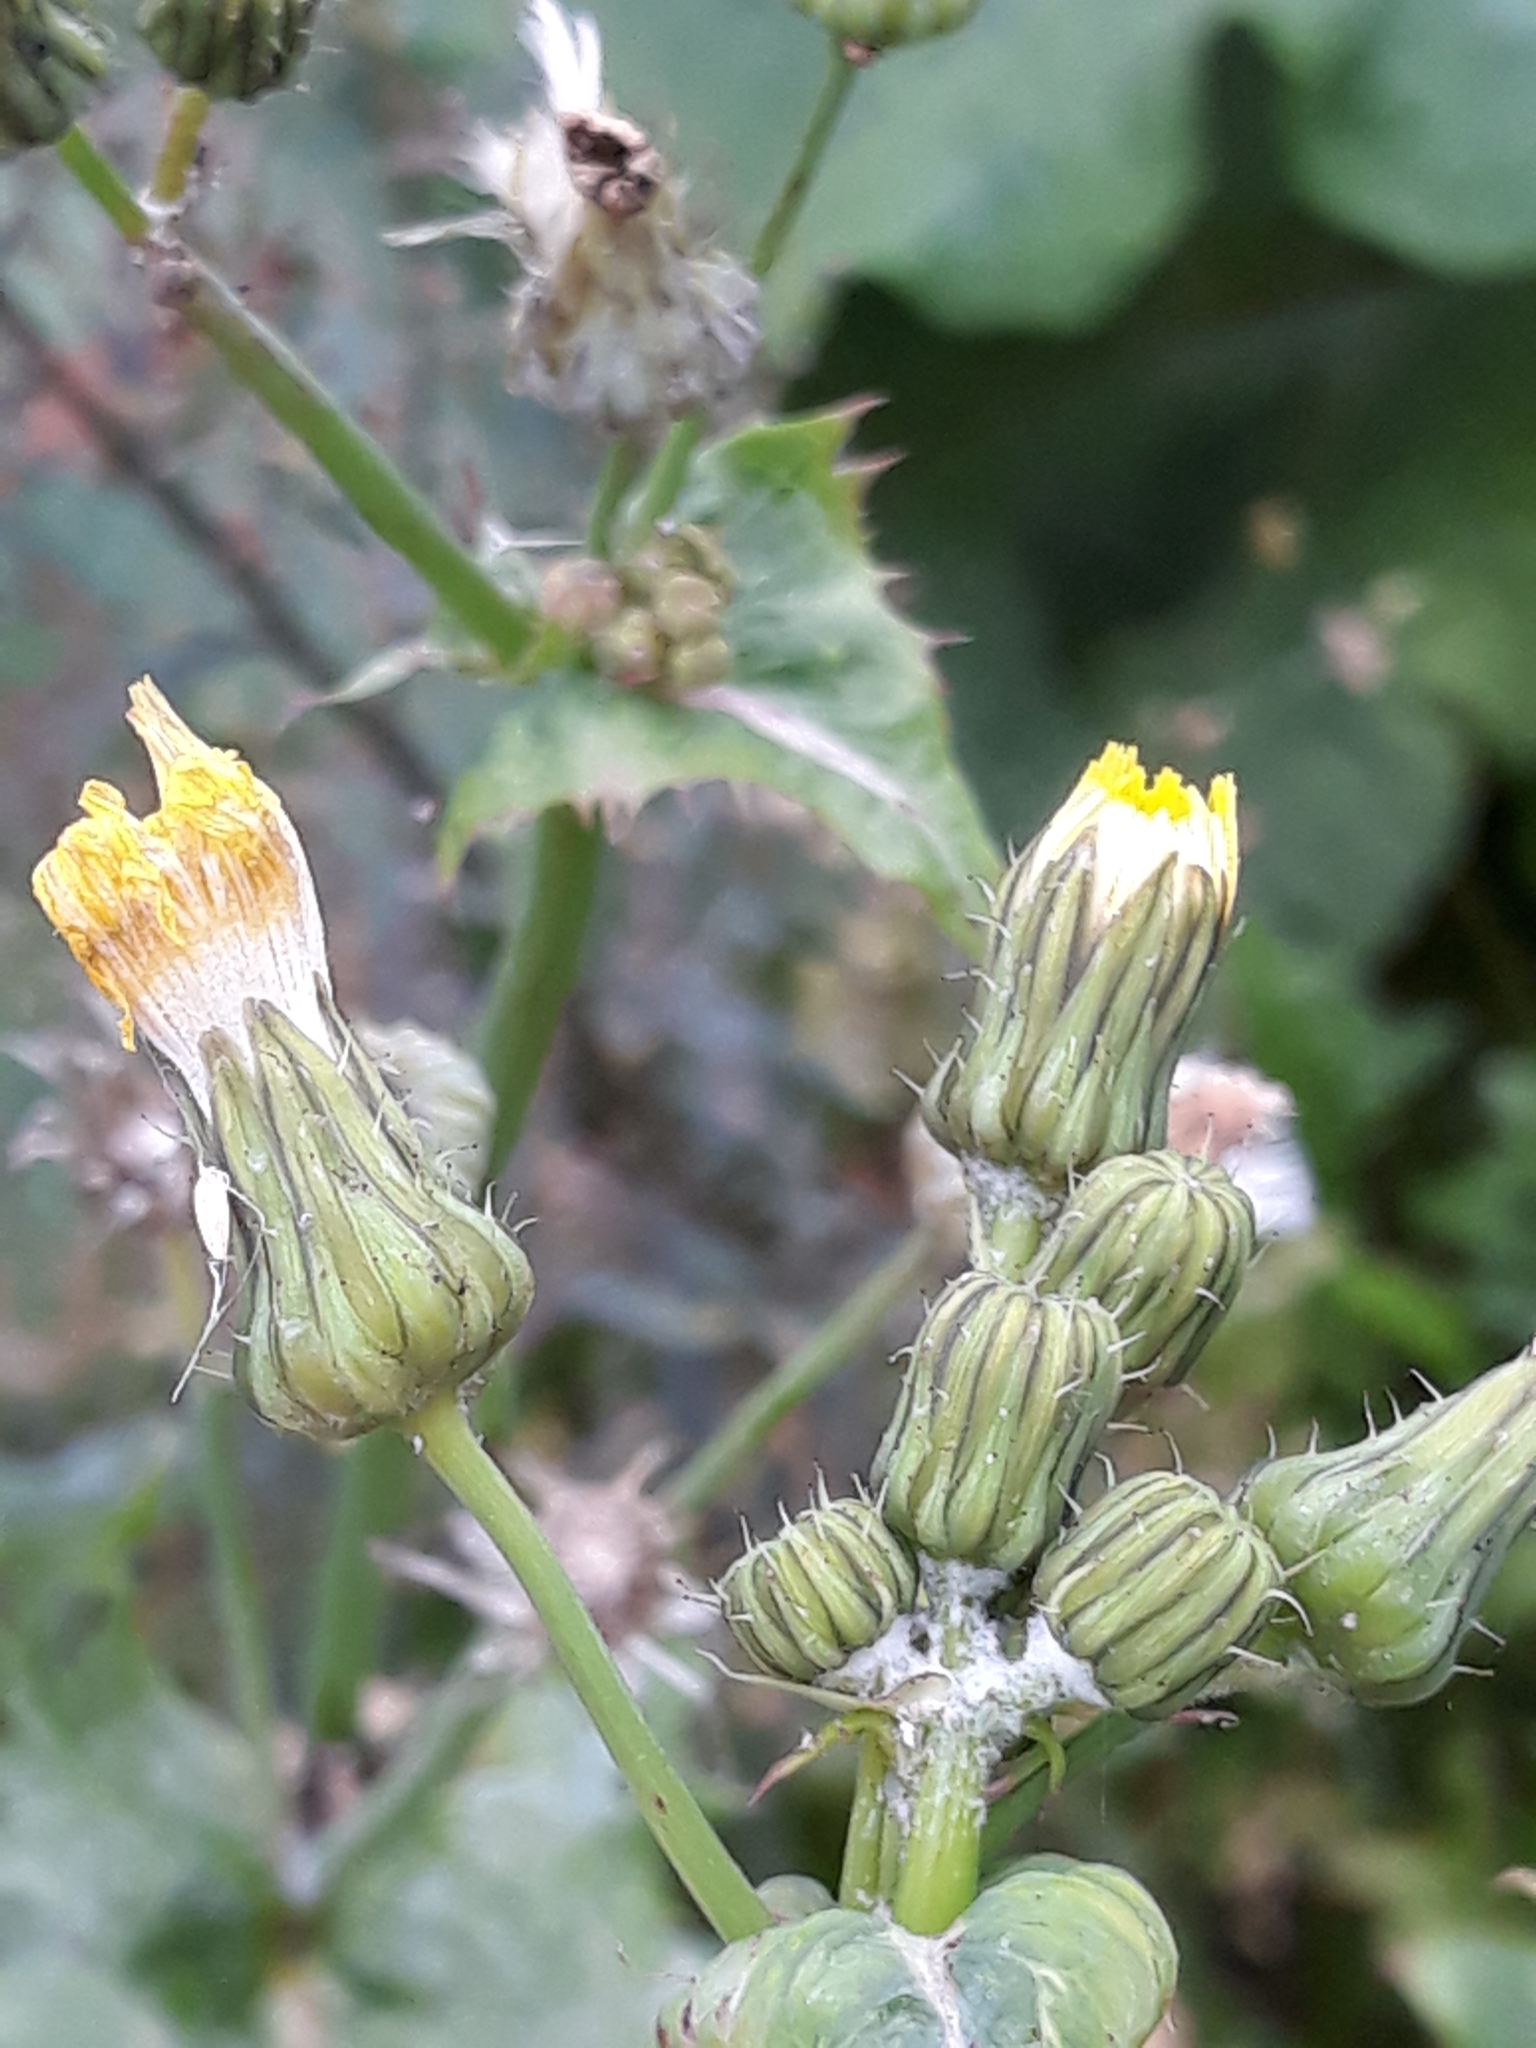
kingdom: Plantae
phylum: Tracheophyta
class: Magnoliopsida
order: Asterales
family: Asteraceae
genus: Sonchus
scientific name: Sonchus oleraceus
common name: Common sowthistle
